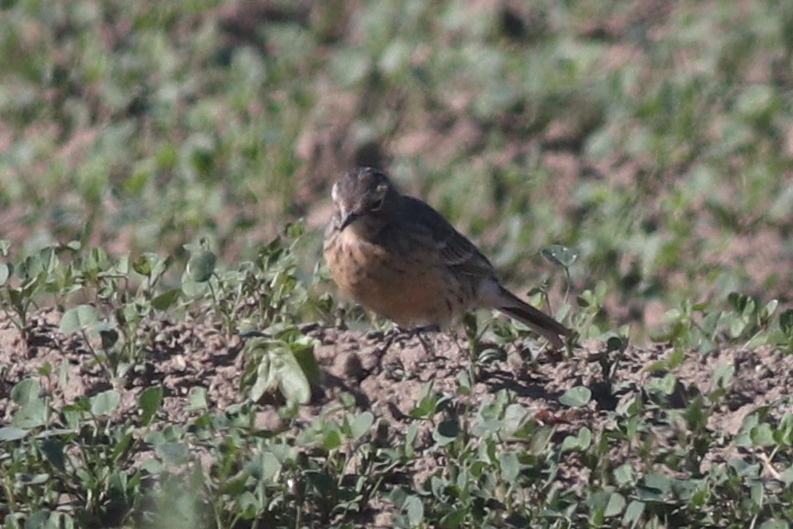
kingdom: Animalia
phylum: Chordata
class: Aves
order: Passeriformes
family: Motacillidae
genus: Anthus
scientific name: Anthus rubescens
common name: Buff-bellied pipit
